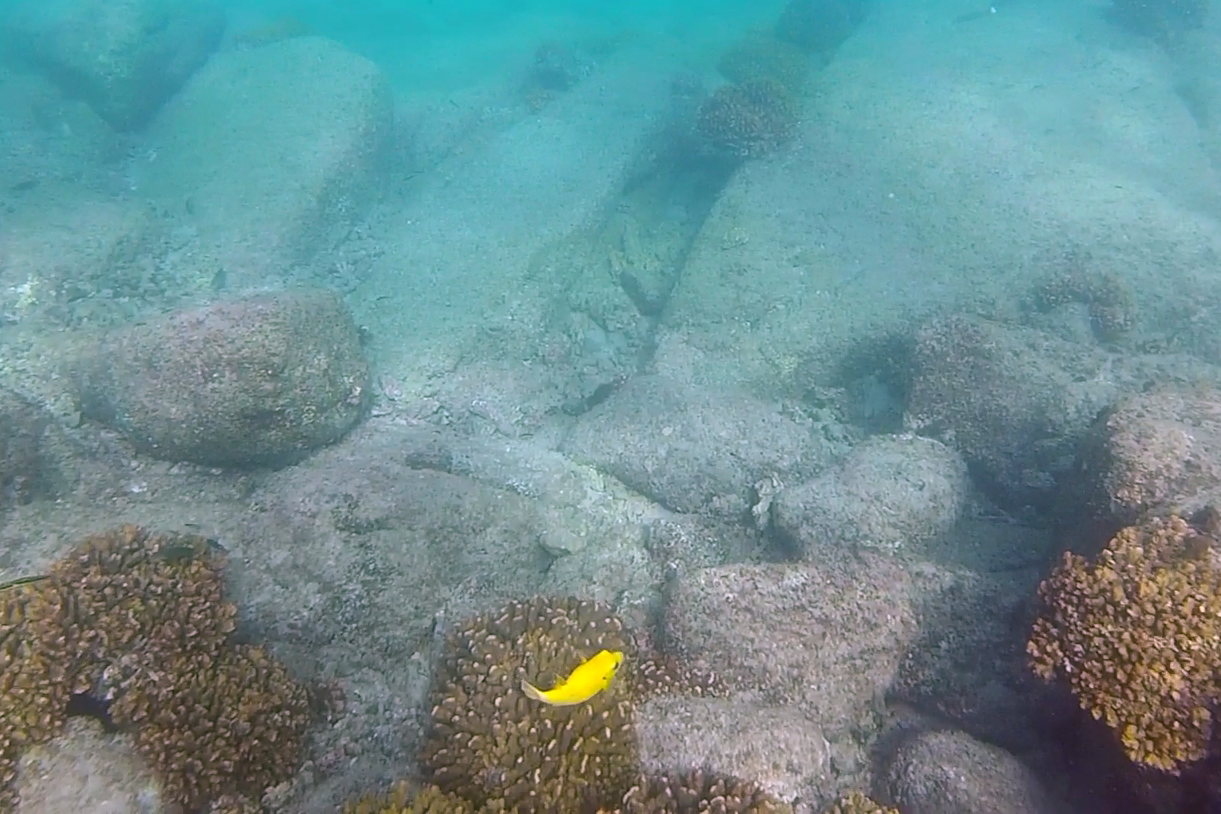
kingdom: Animalia
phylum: Chordata
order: Tetraodontiformes
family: Tetraodontidae
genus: Arothron
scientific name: Arothron meleagris
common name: Guinea-fowl pufferfish
